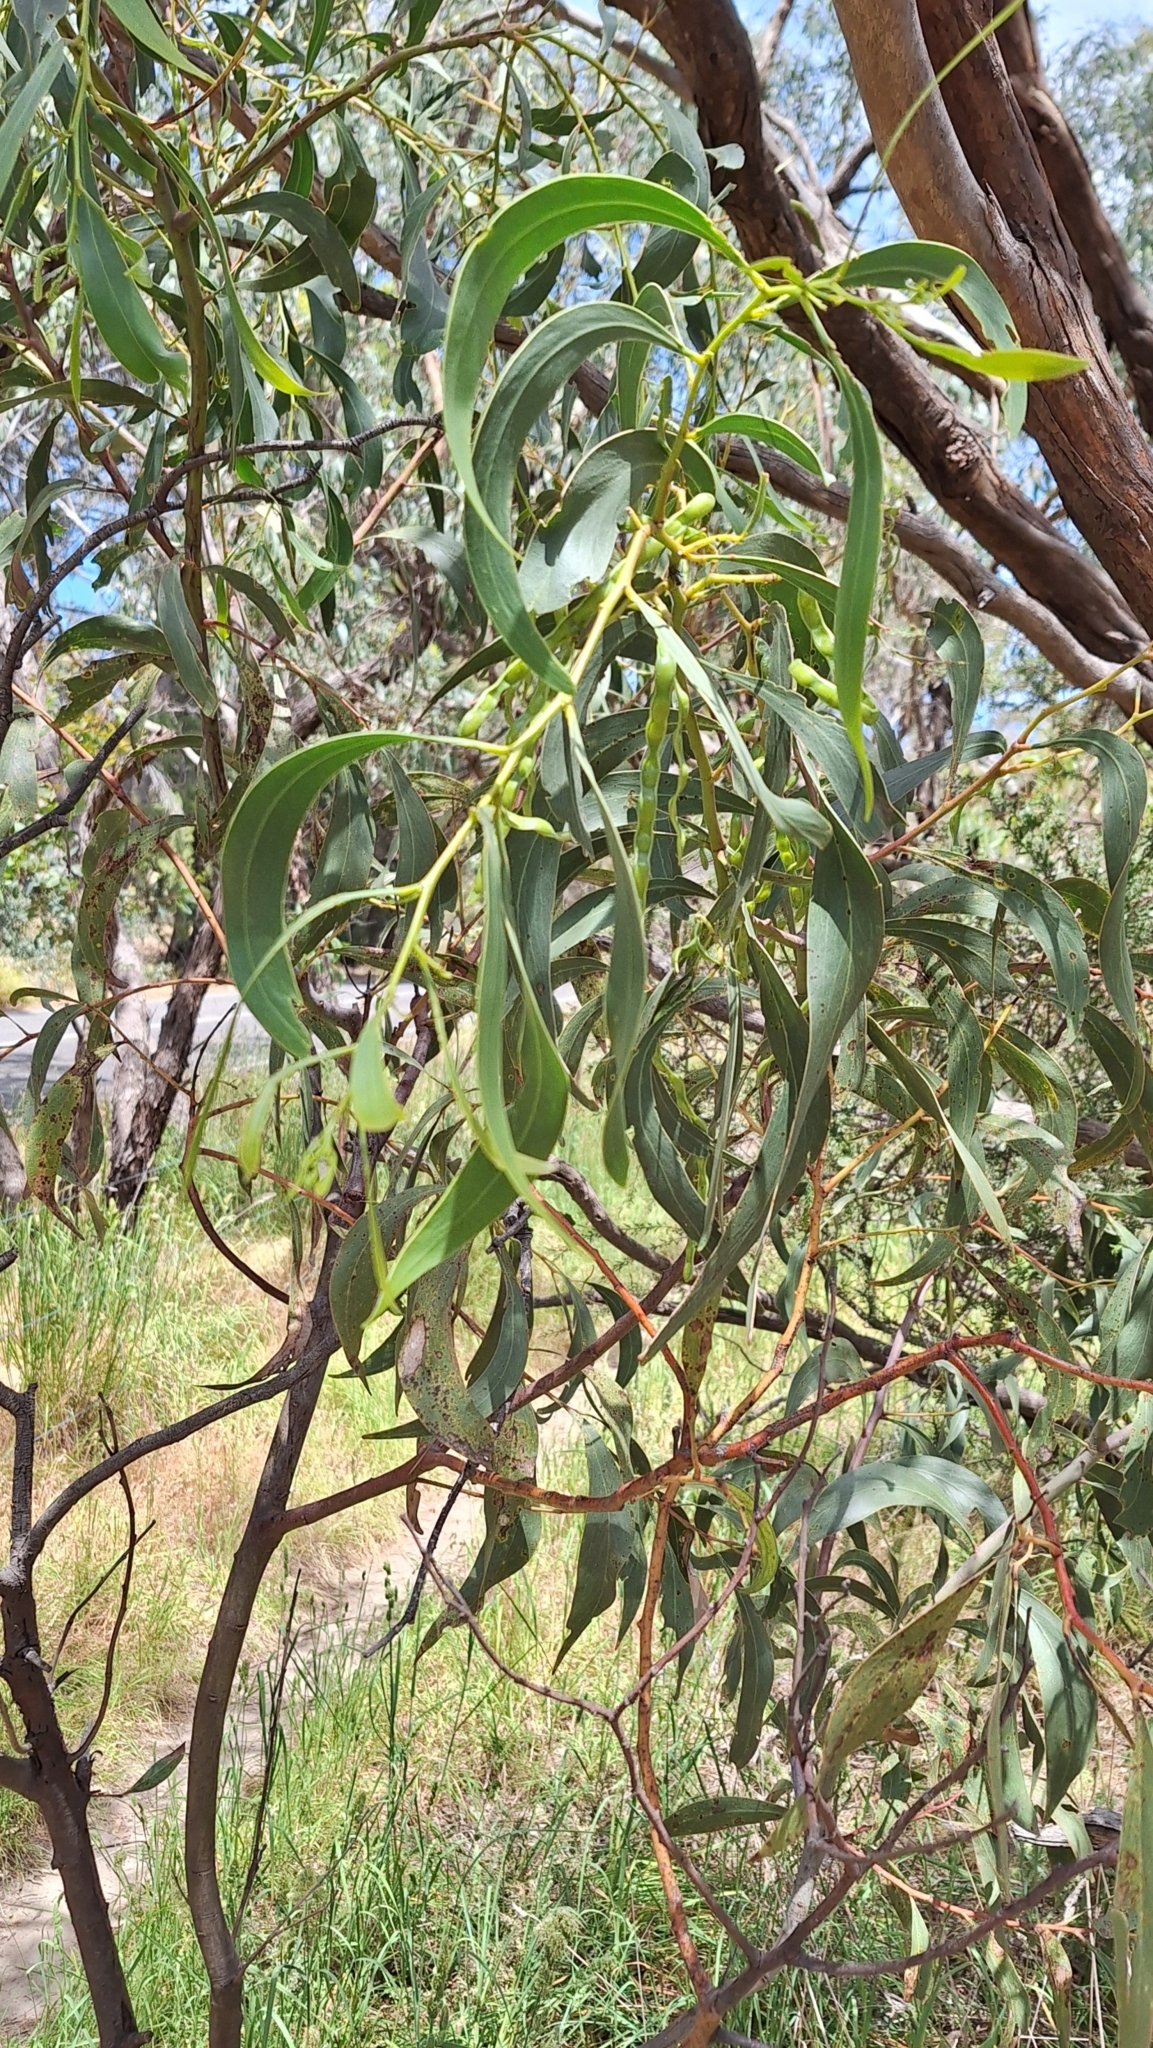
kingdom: Plantae
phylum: Tracheophyta
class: Magnoliopsida
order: Fabales
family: Fabaceae
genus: Acacia
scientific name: Acacia pycnantha
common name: Golden wattle
